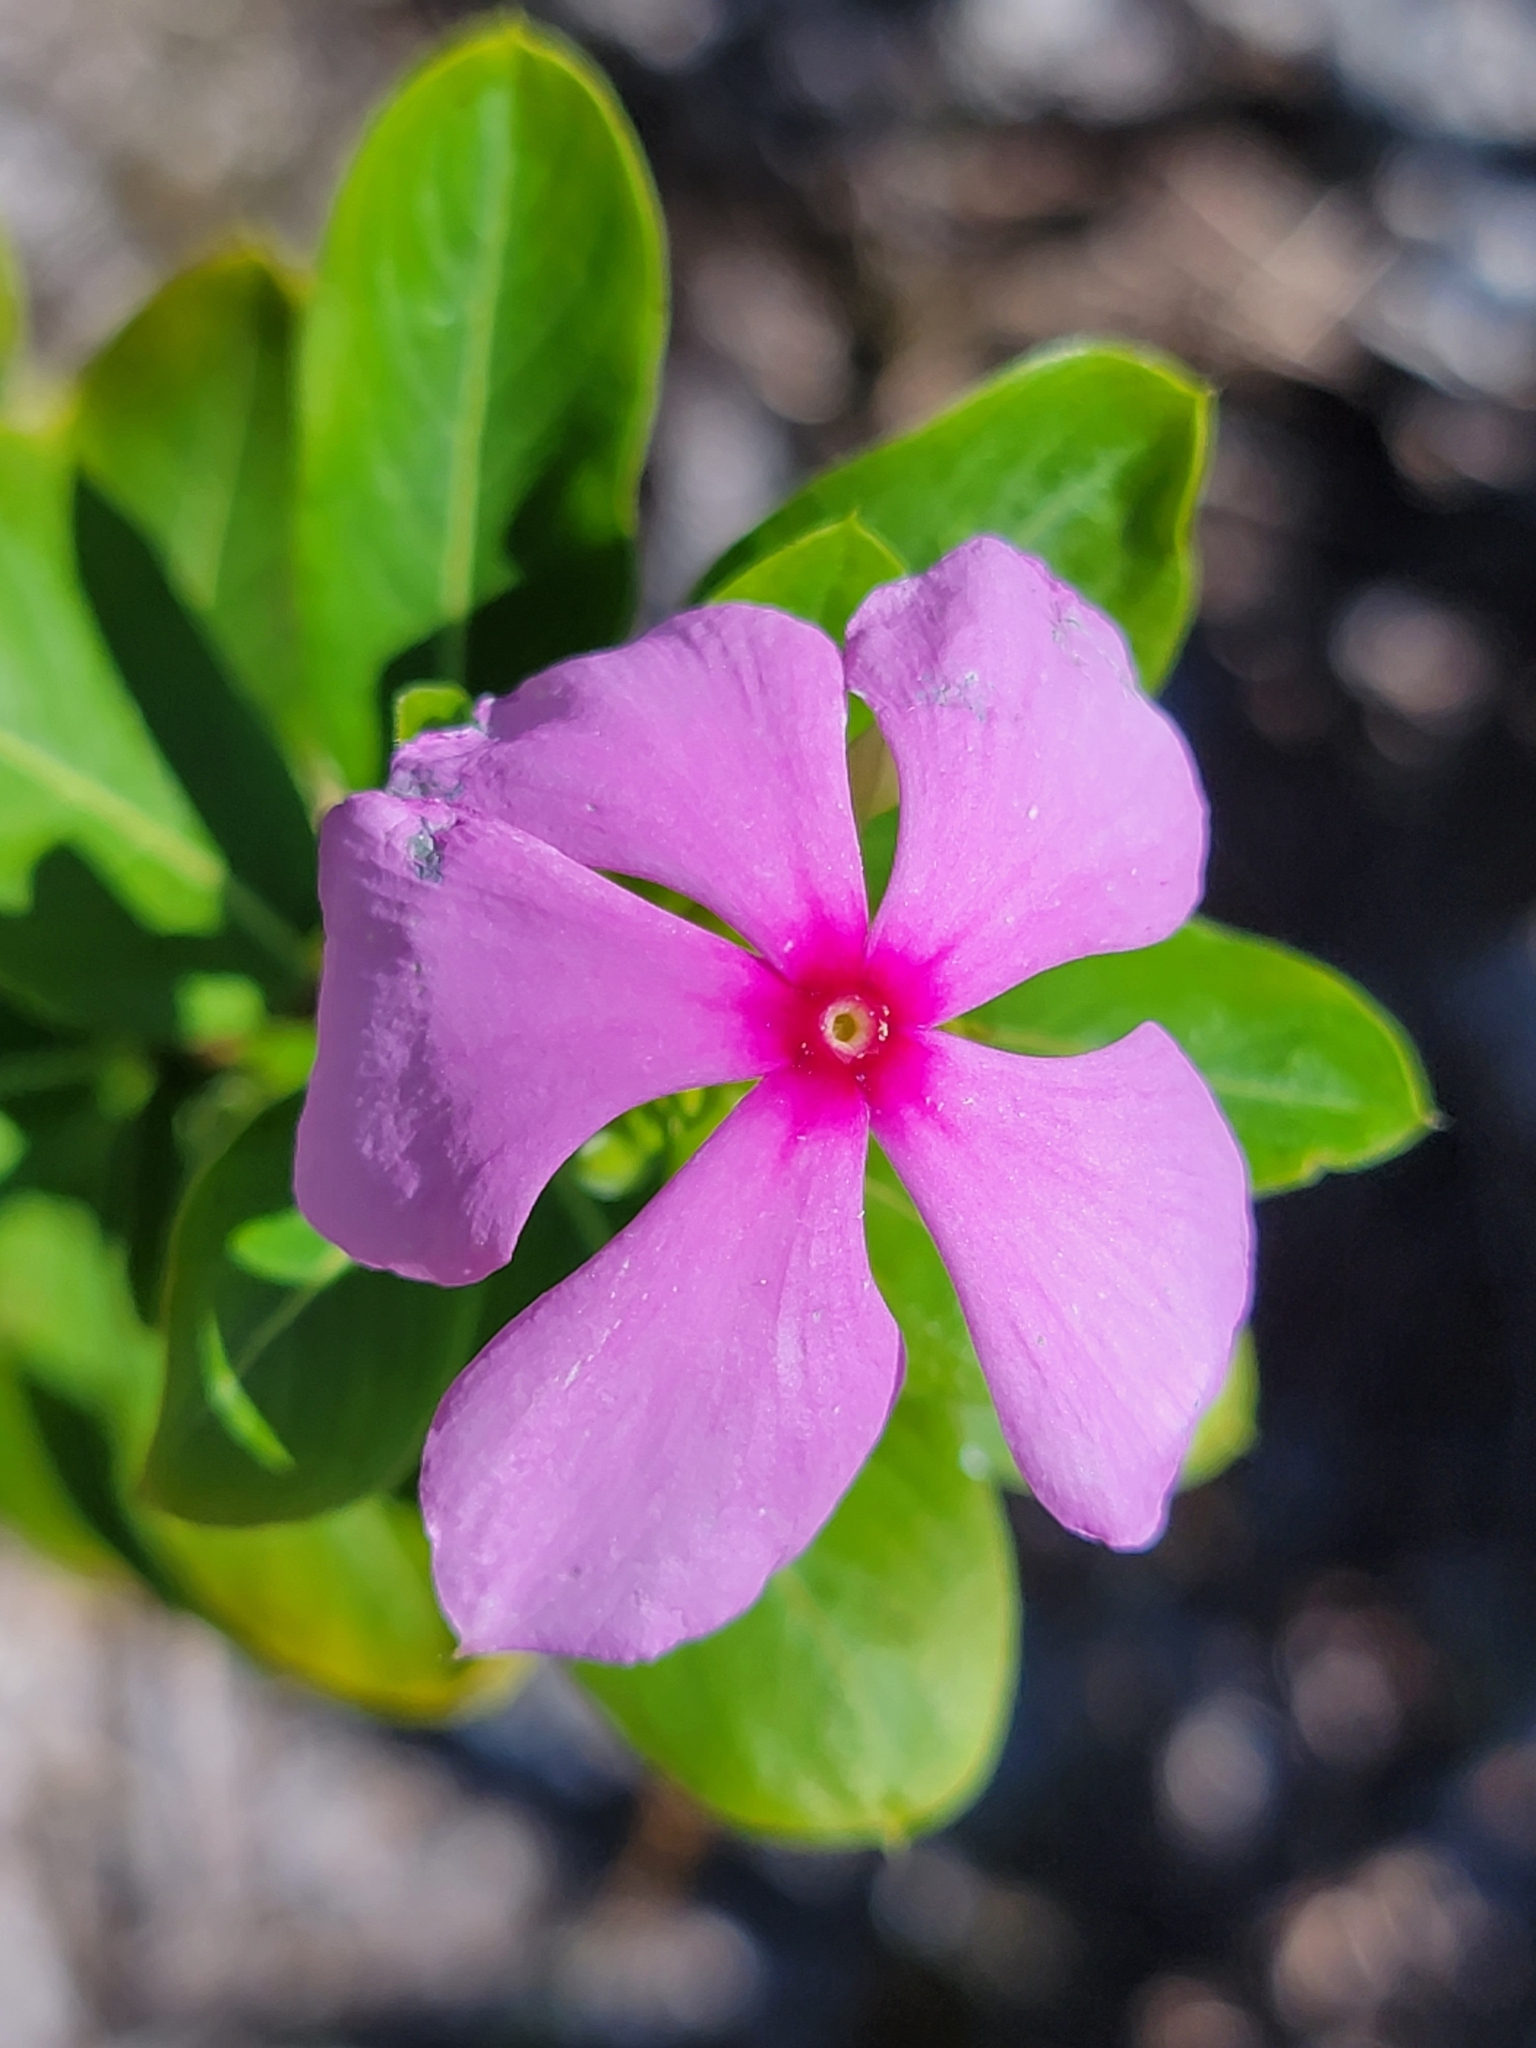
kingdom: Plantae
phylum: Tracheophyta
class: Magnoliopsida
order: Gentianales
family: Apocynaceae
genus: Catharanthus
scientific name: Catharanthus roseus
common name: Madagascar periwinkle
